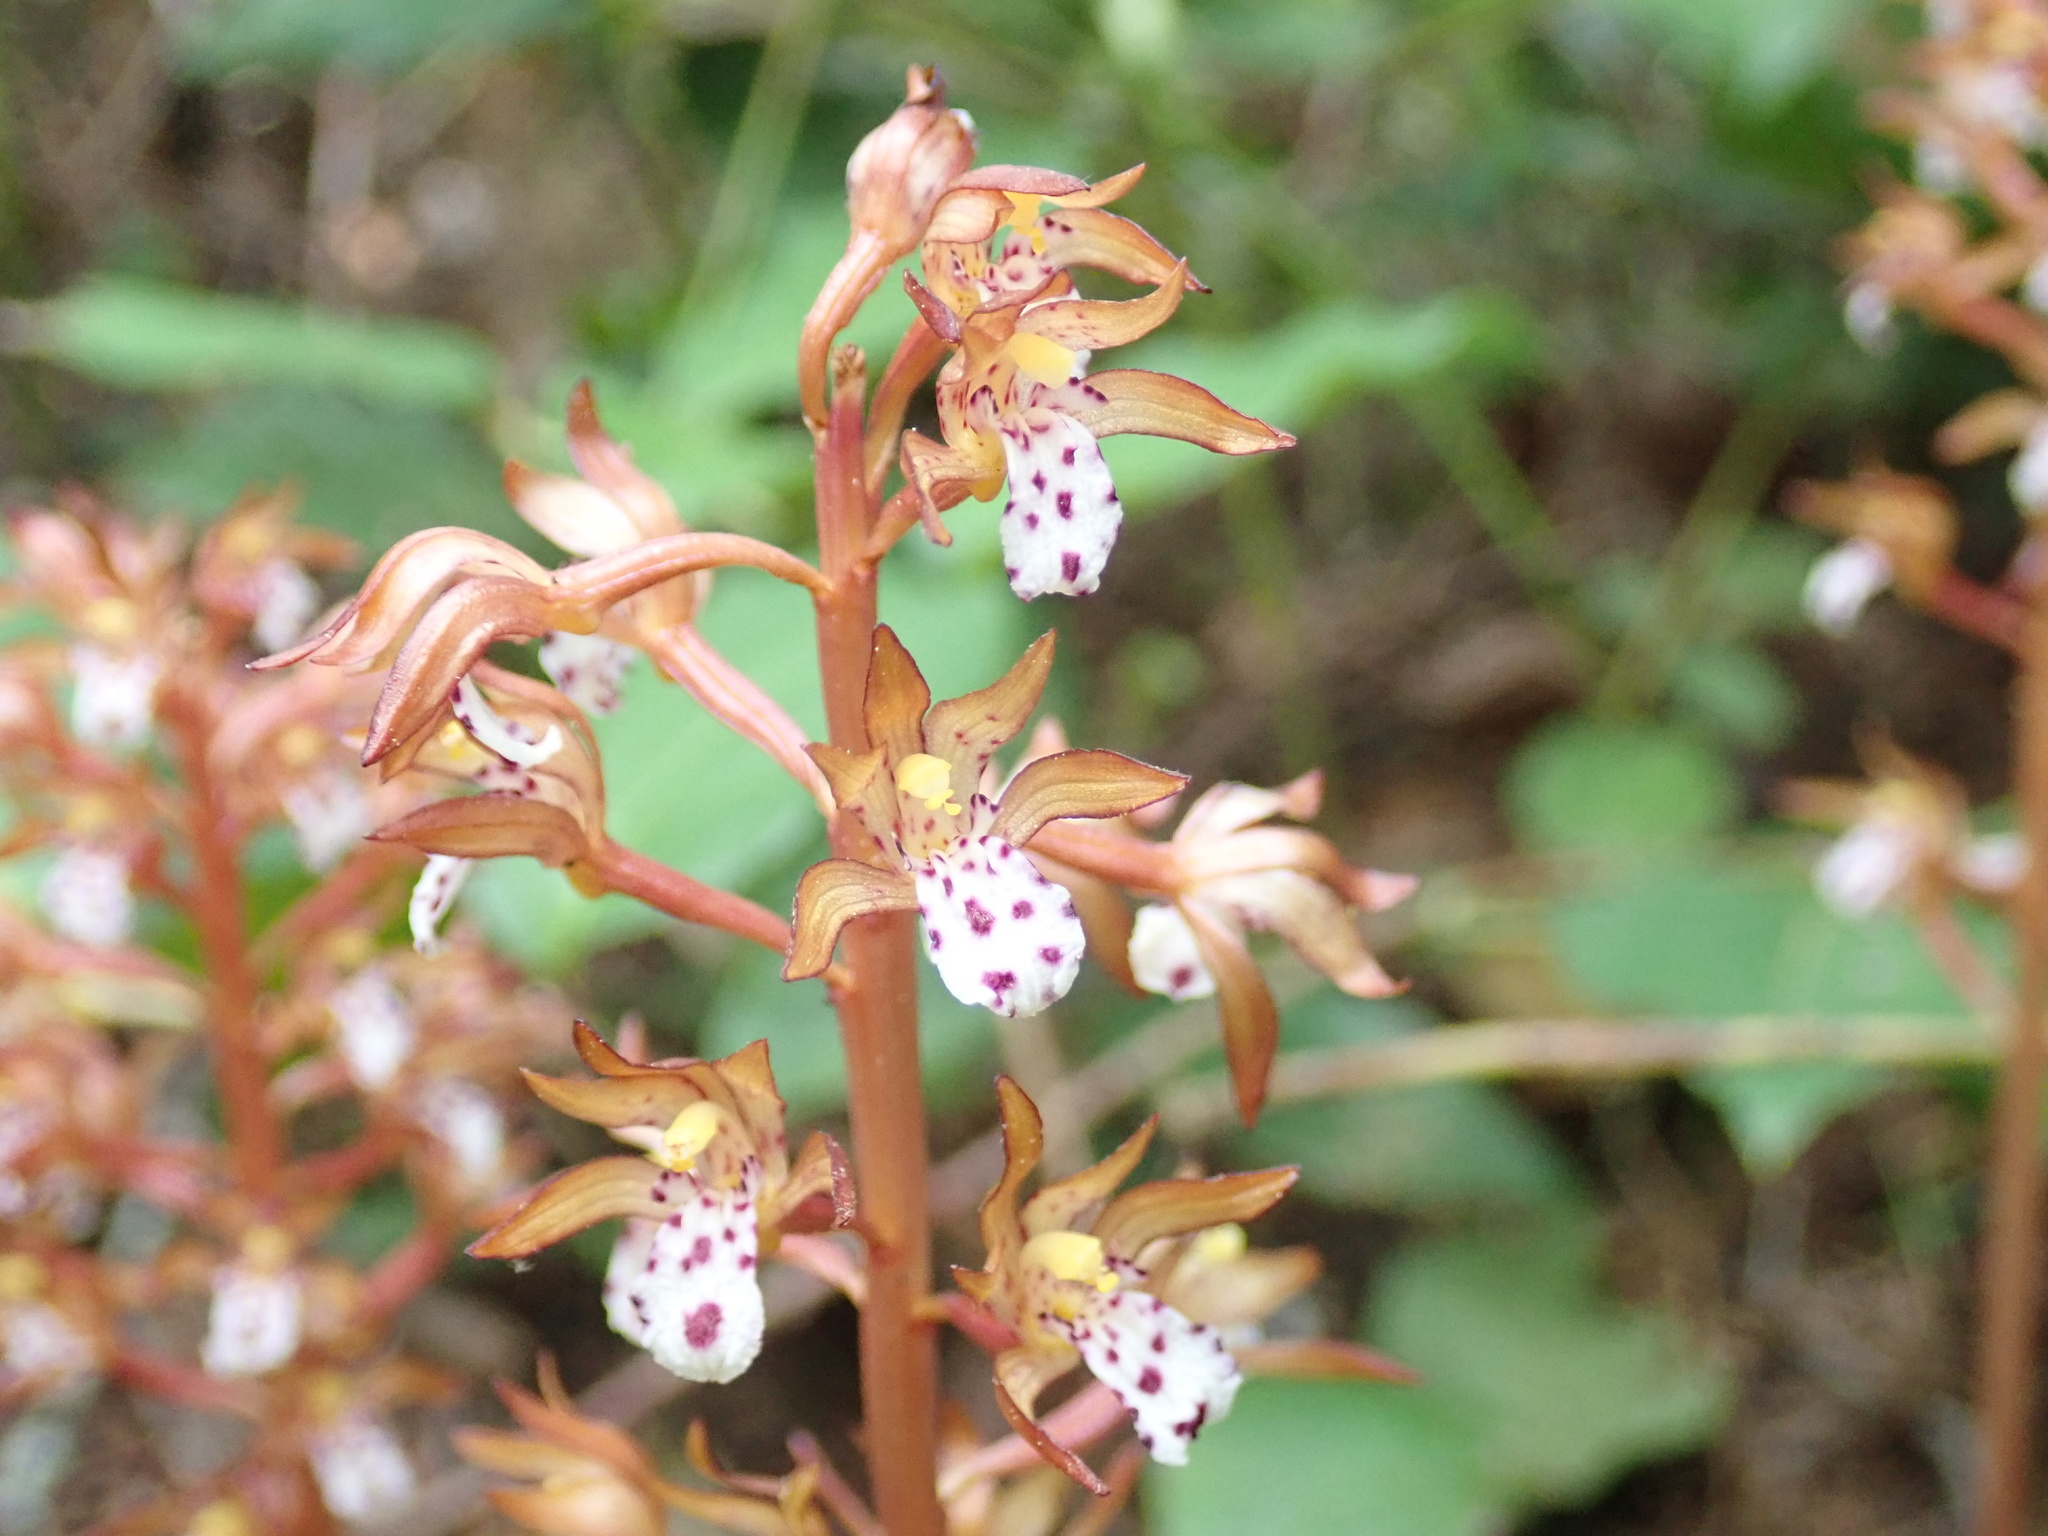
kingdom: Plantae
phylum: Tracheophyta
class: Liliopsida
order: Asparagales
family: Orchidaceae
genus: Corallorhiza
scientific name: Corallorhiza maculata
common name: Spotted coralroot
